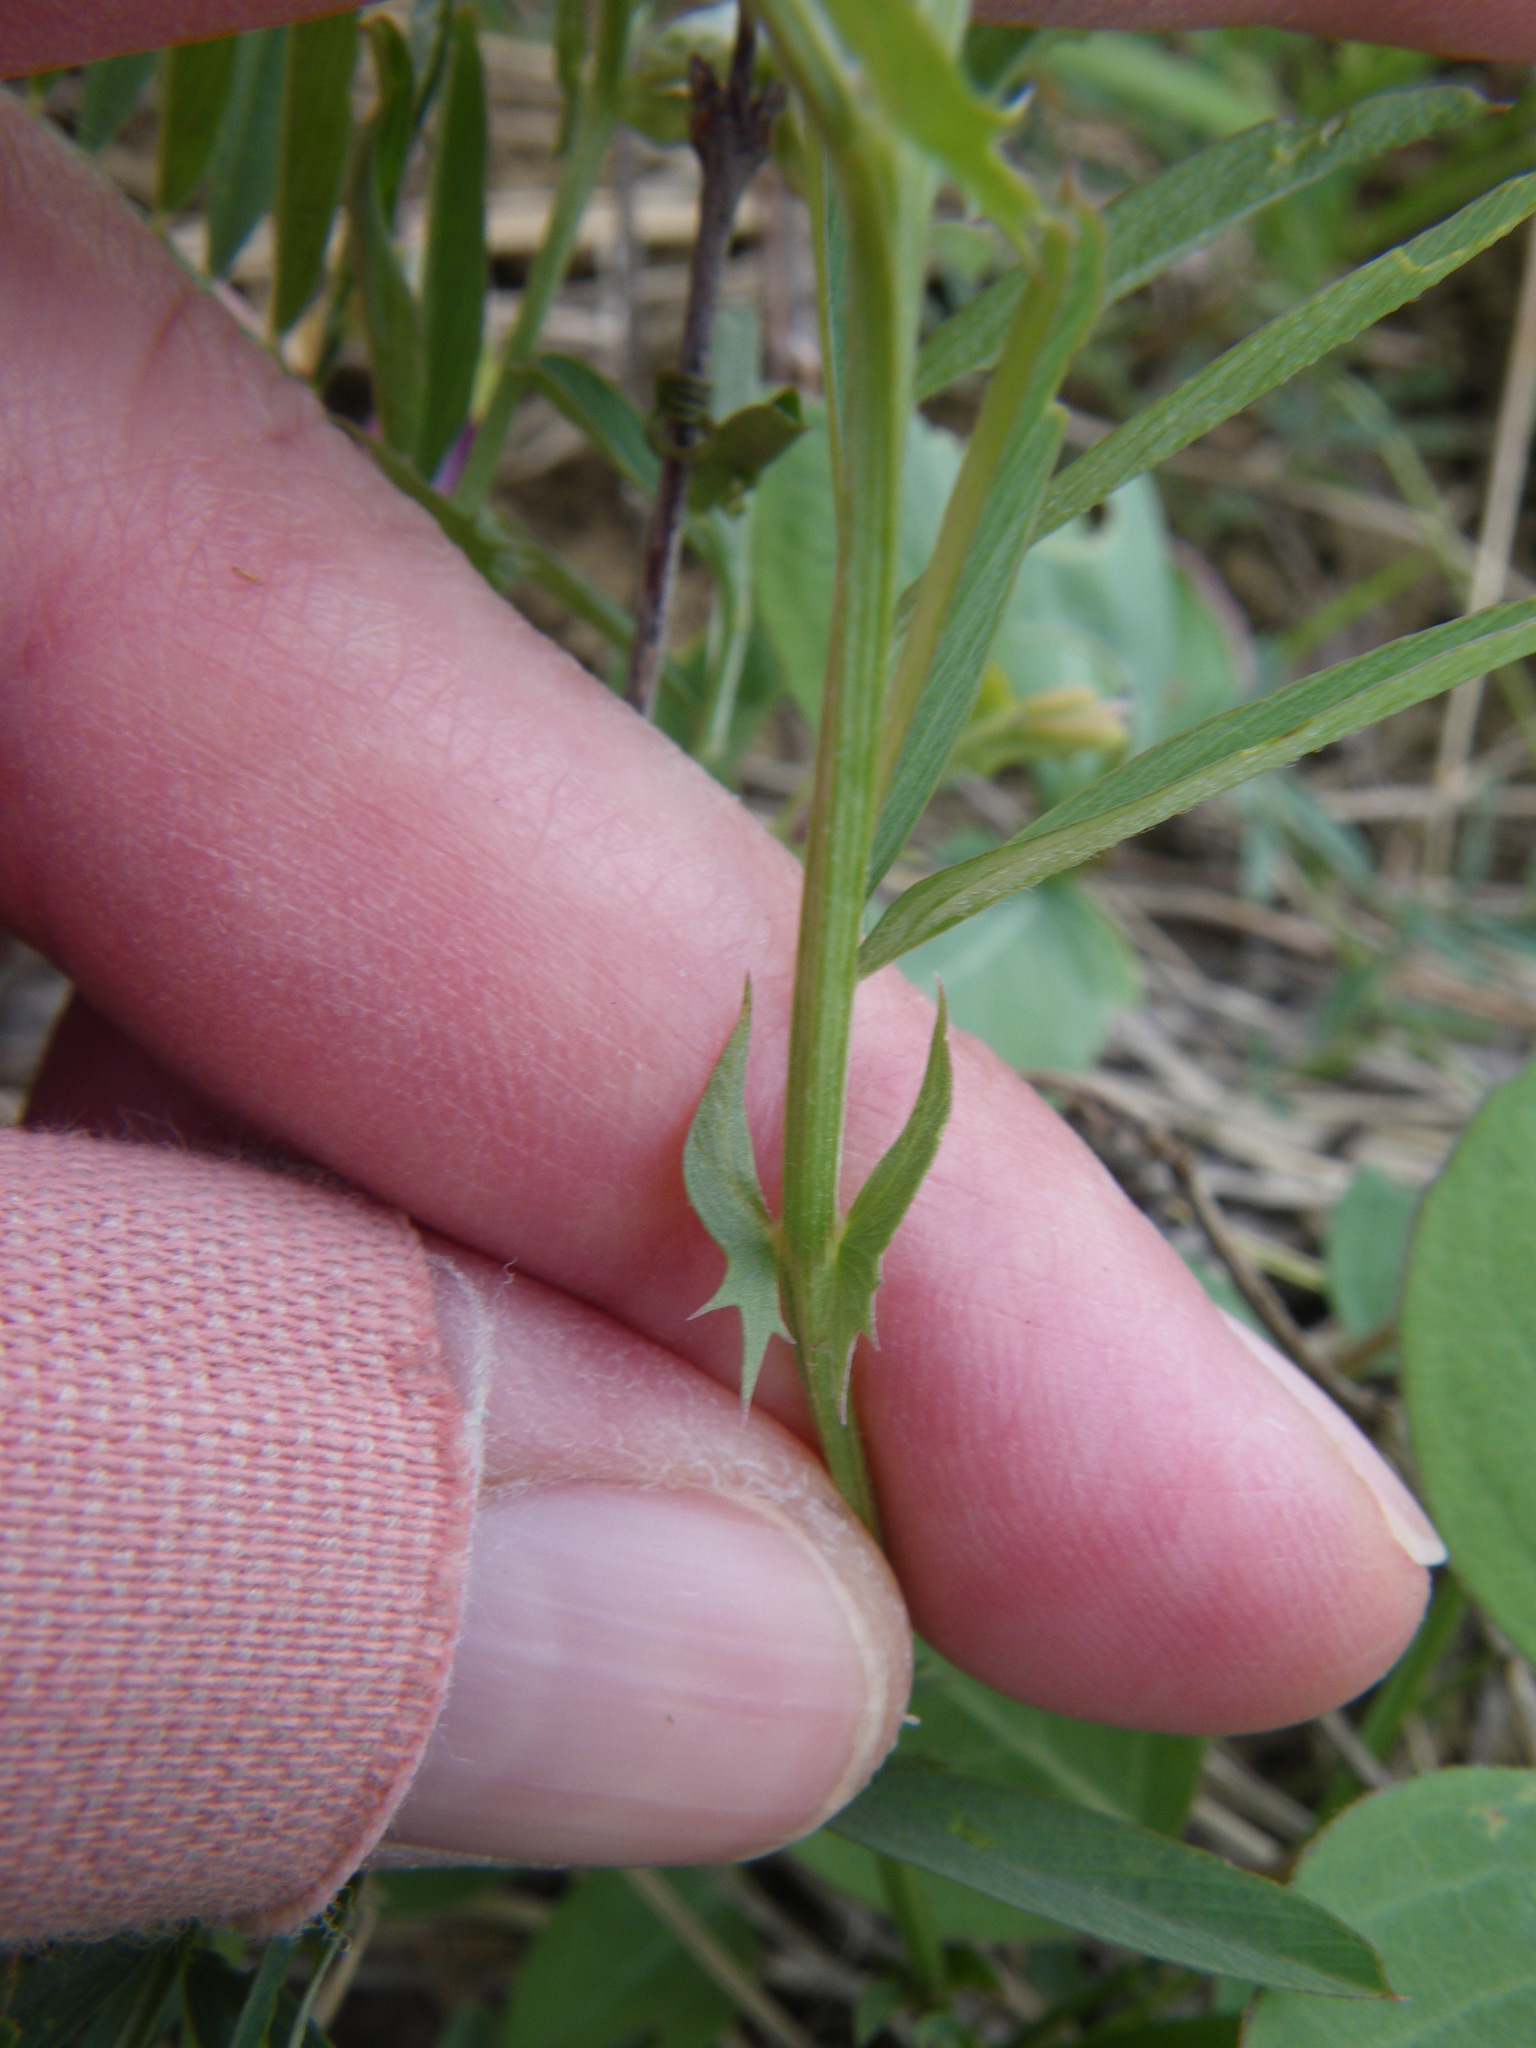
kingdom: Plantae
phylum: Tracheophyta
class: Magnoliopsida
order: Fabales
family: Fabaceae
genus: Vicia
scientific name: Vicia americana
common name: American vetch
